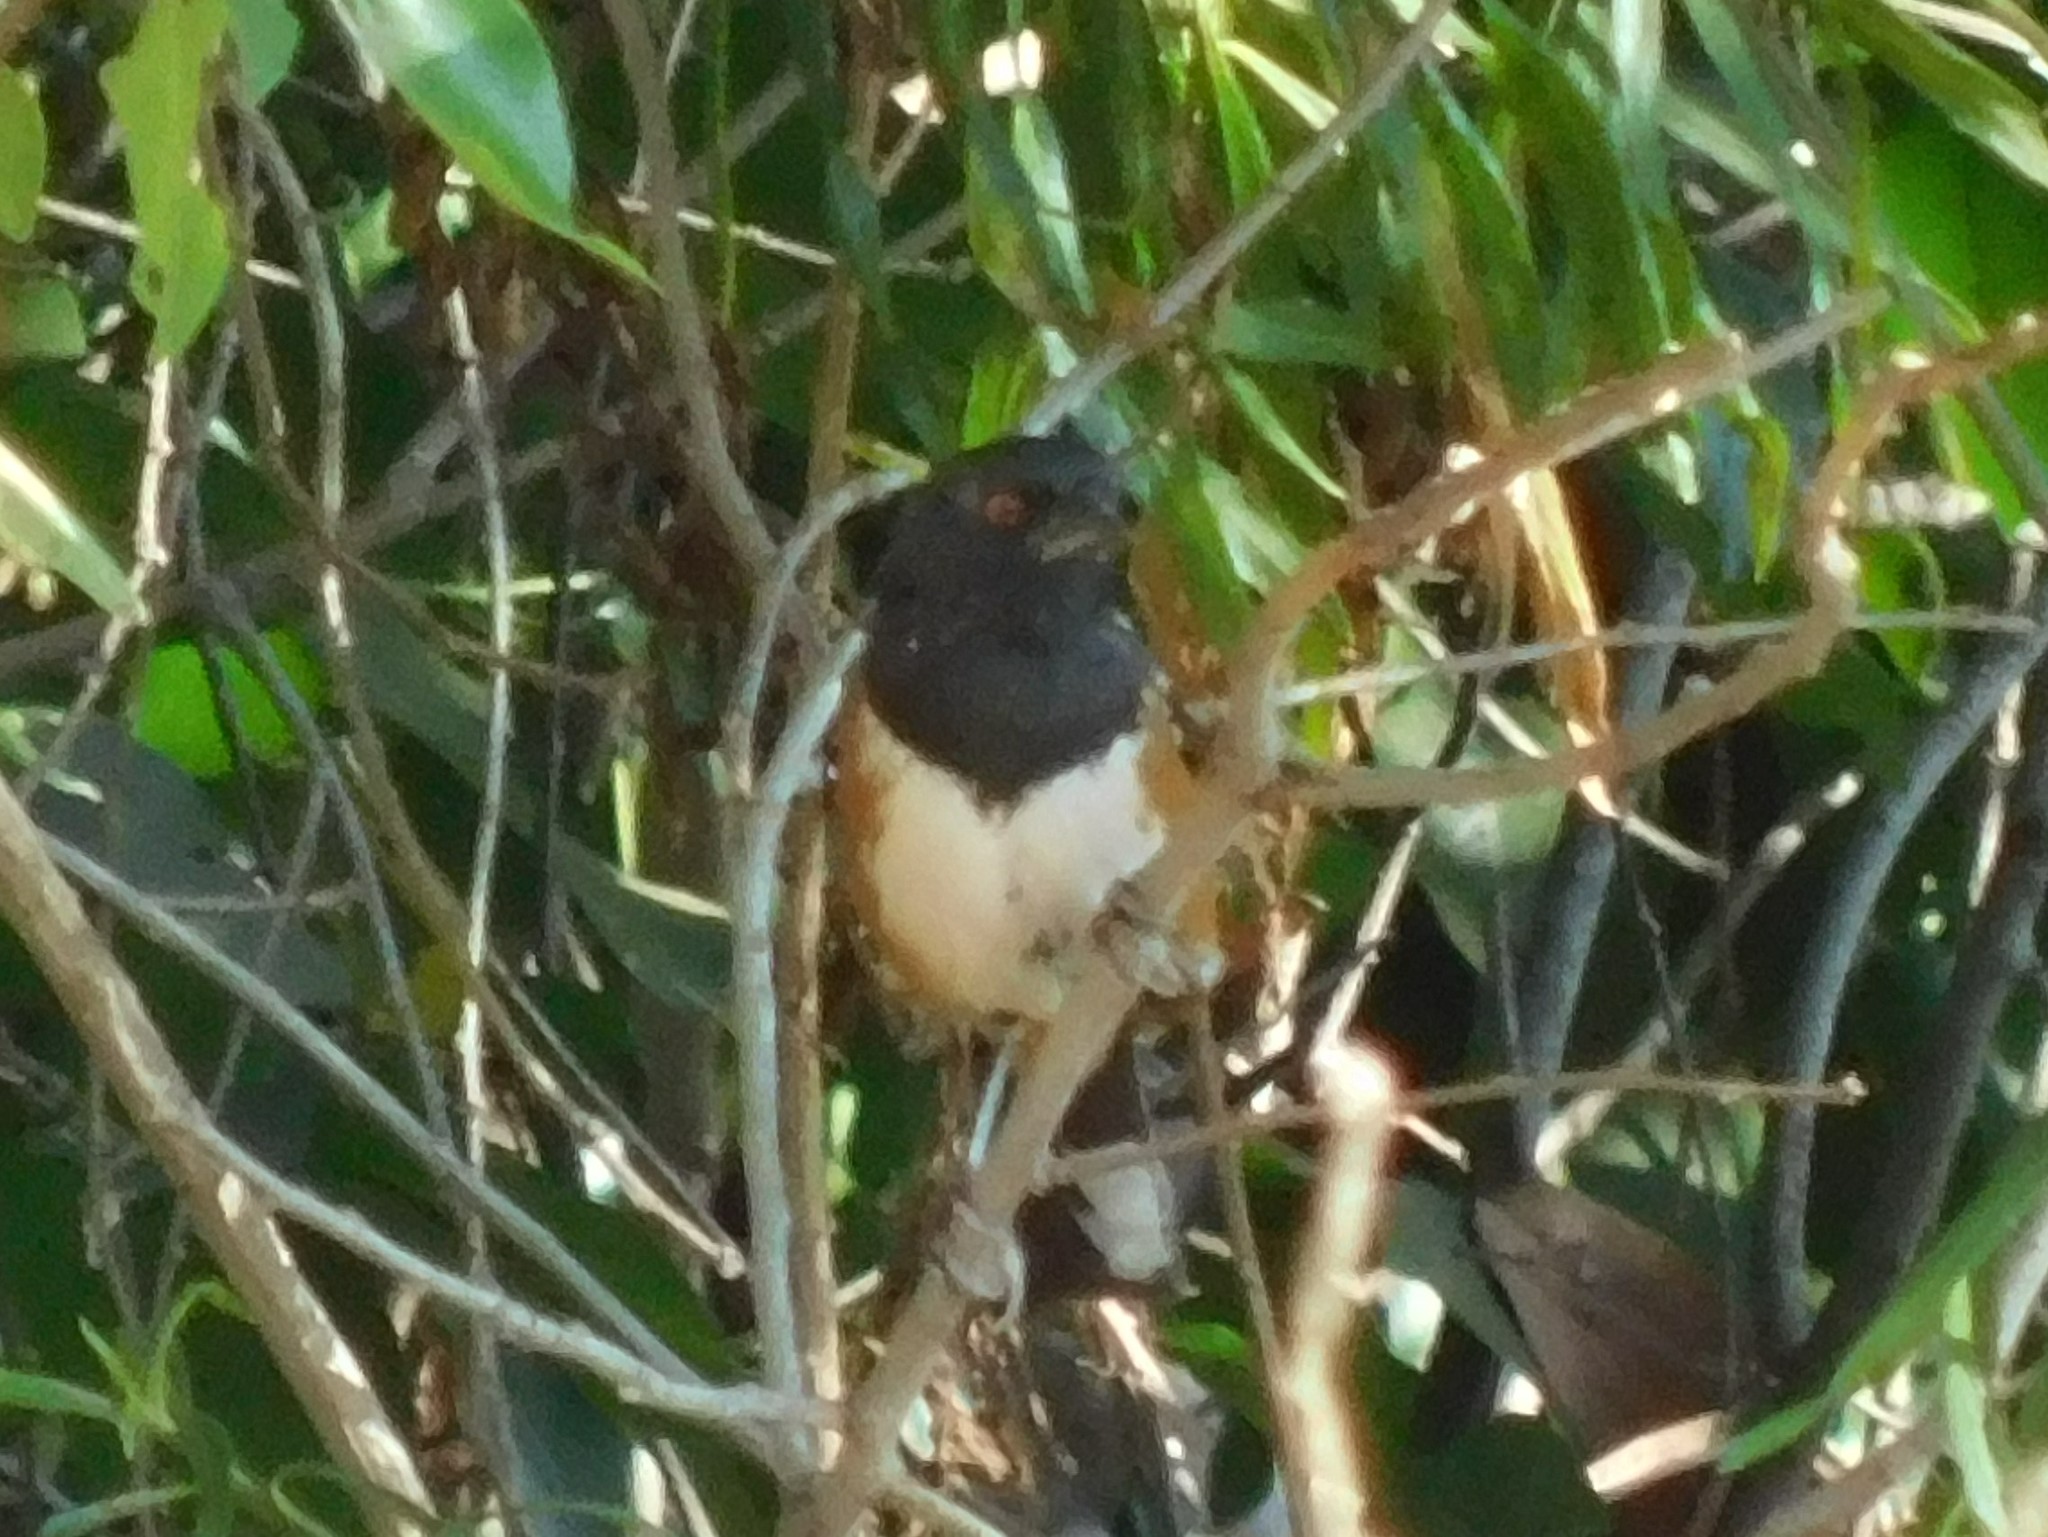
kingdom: Animalia
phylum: Chordata
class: Aves
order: Passeriformes
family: Passerellidae
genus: Pipilo
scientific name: Pipilo maculatus
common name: Spotted towhee
